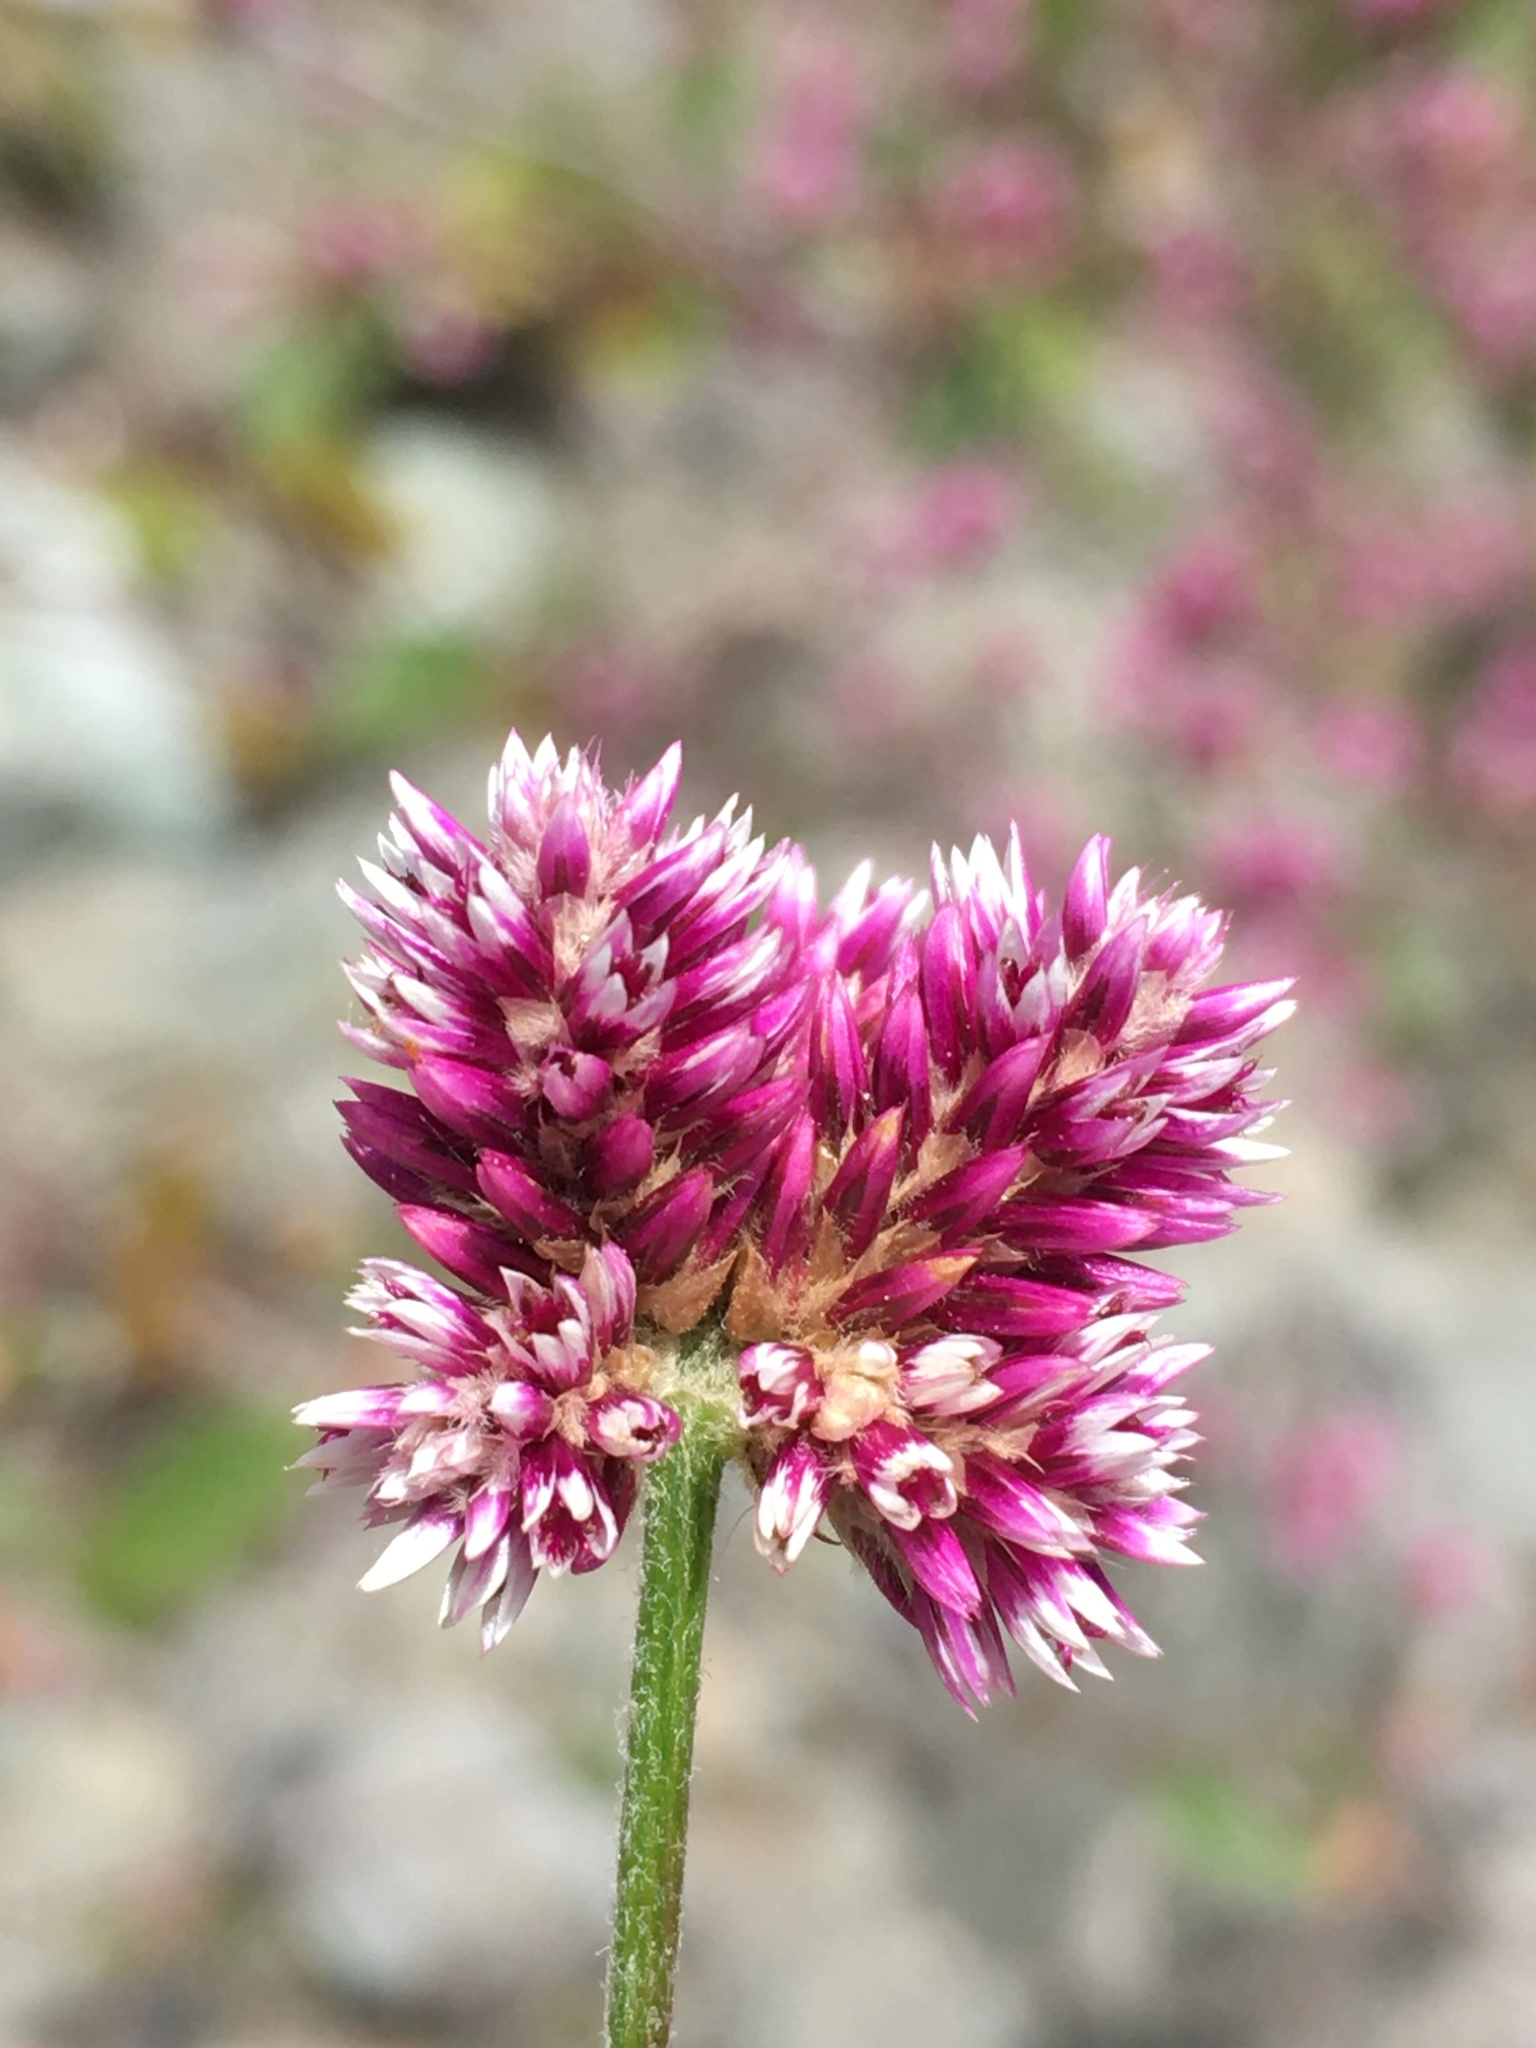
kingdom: Plantae
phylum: Tracheophyta
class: Magnoliopsida
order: Caryophyllales
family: Amaranthaceae
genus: Alternanthera
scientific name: Alternanthera porrigens
